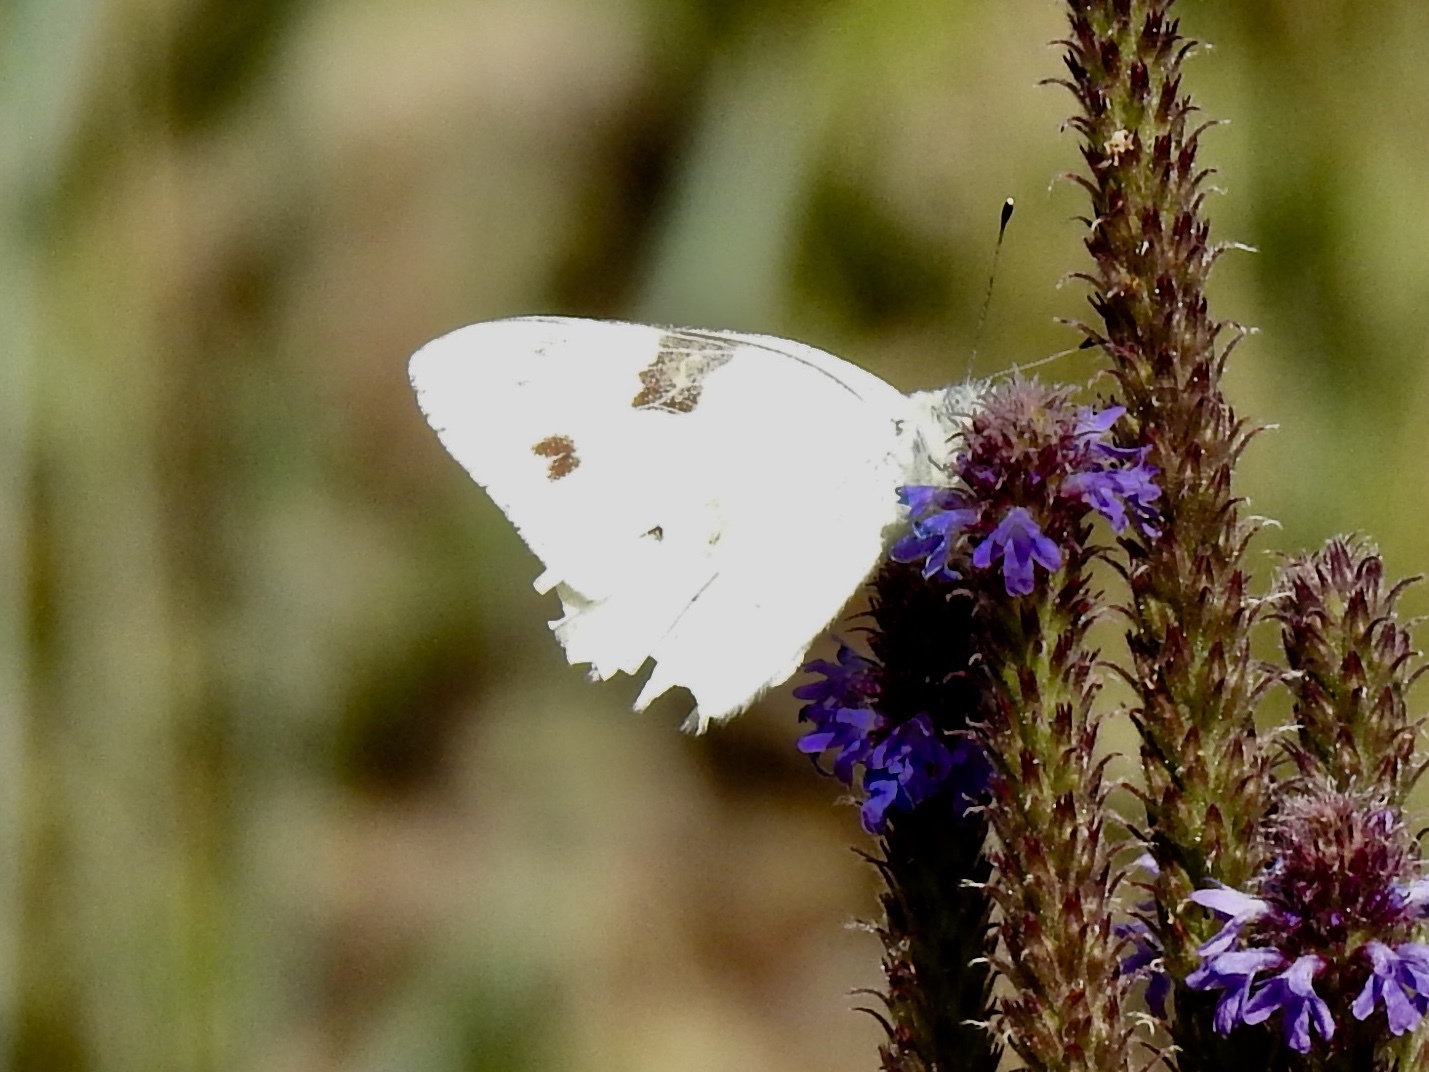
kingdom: Animalia
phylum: Arthropoda
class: Insecta
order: Lepidoptera
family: Pieridae
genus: Pontia
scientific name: Pontia protodice
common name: Checkered white
